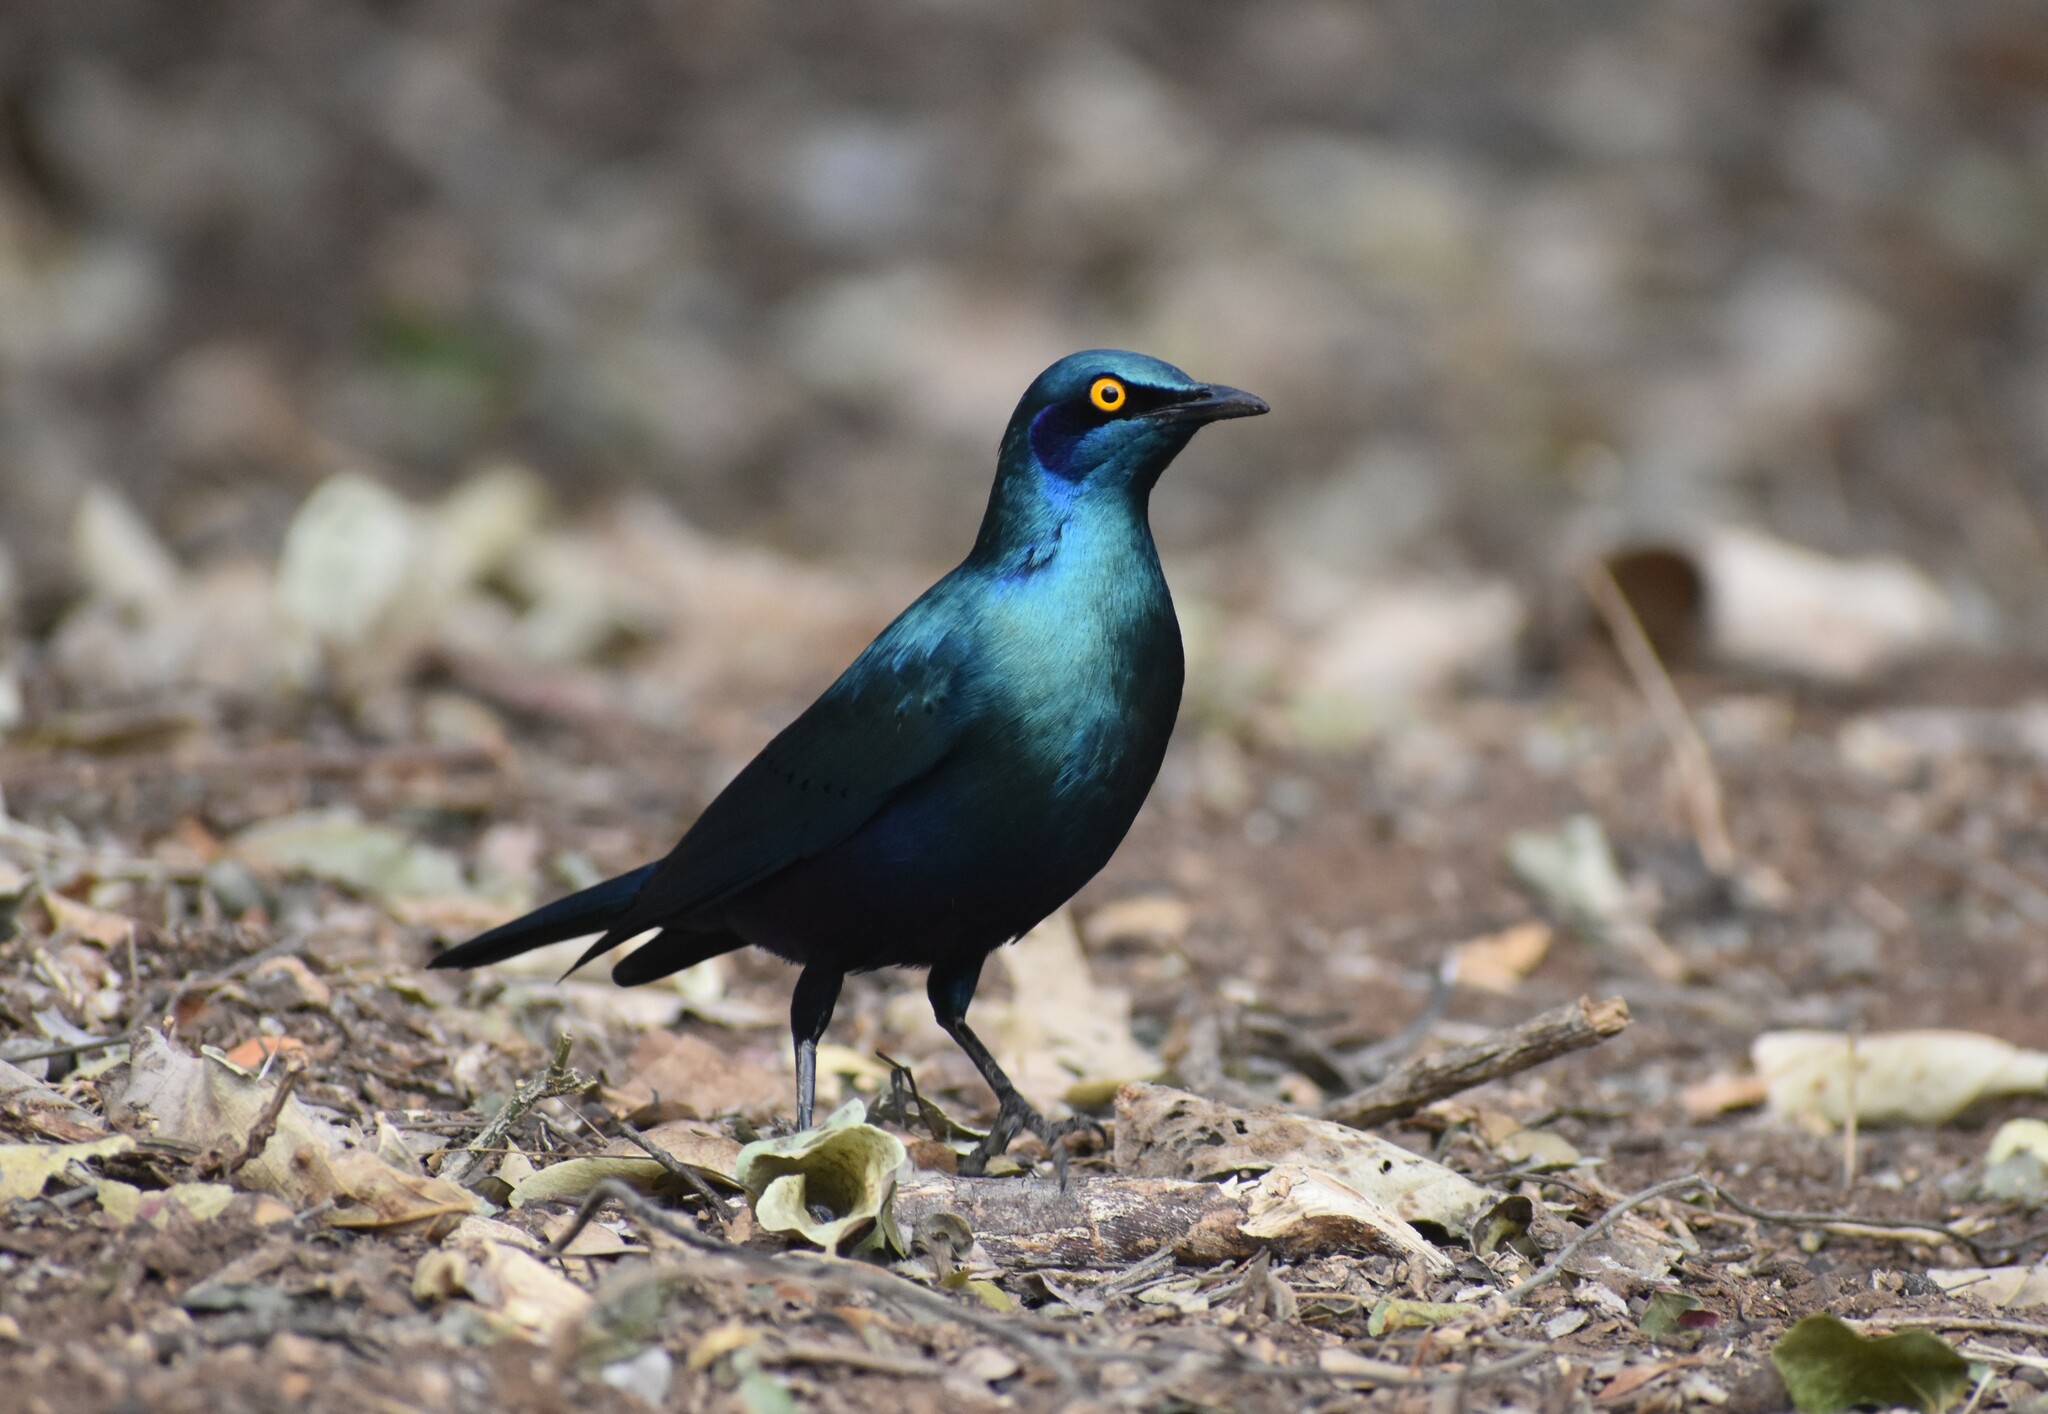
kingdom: Animalia
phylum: Chordata
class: Aves
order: Passeriformes
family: Sturnidae
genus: Lamprotornis
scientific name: Lamprotornis chalybaeus
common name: Greater blue-eared starling
